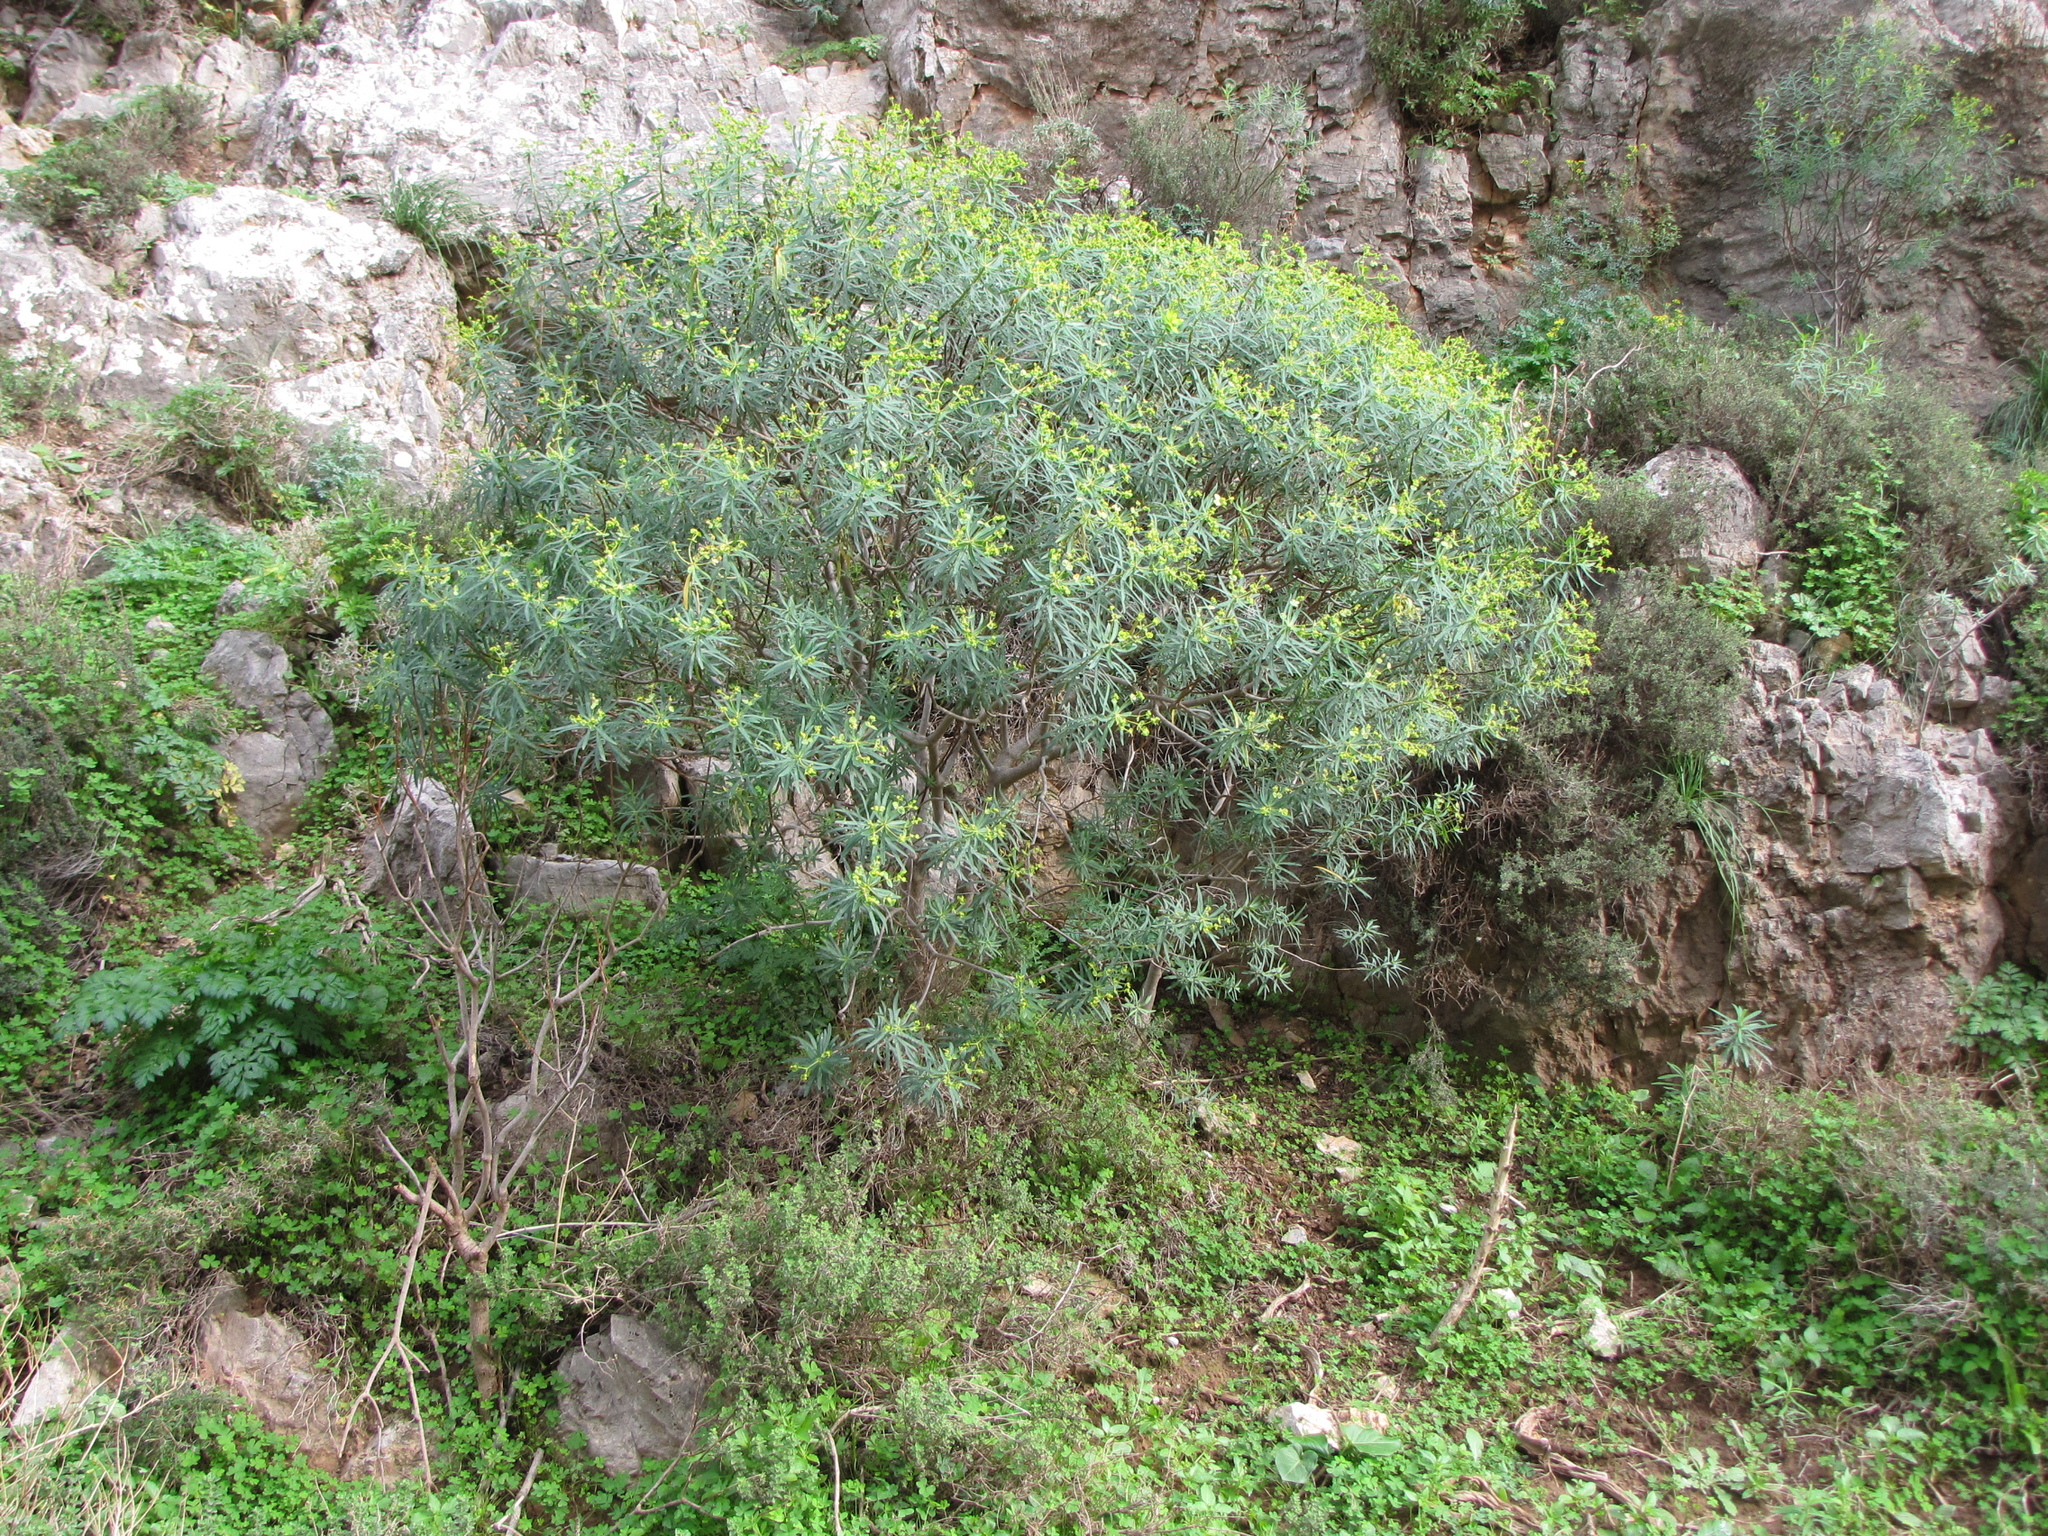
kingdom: Plantae
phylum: Tracheophyta
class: Magnoliopsida
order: Malpighiales
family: Euphorbiaceae
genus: Euphorbia
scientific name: Euphorbia dendroides
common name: Tree spurge
